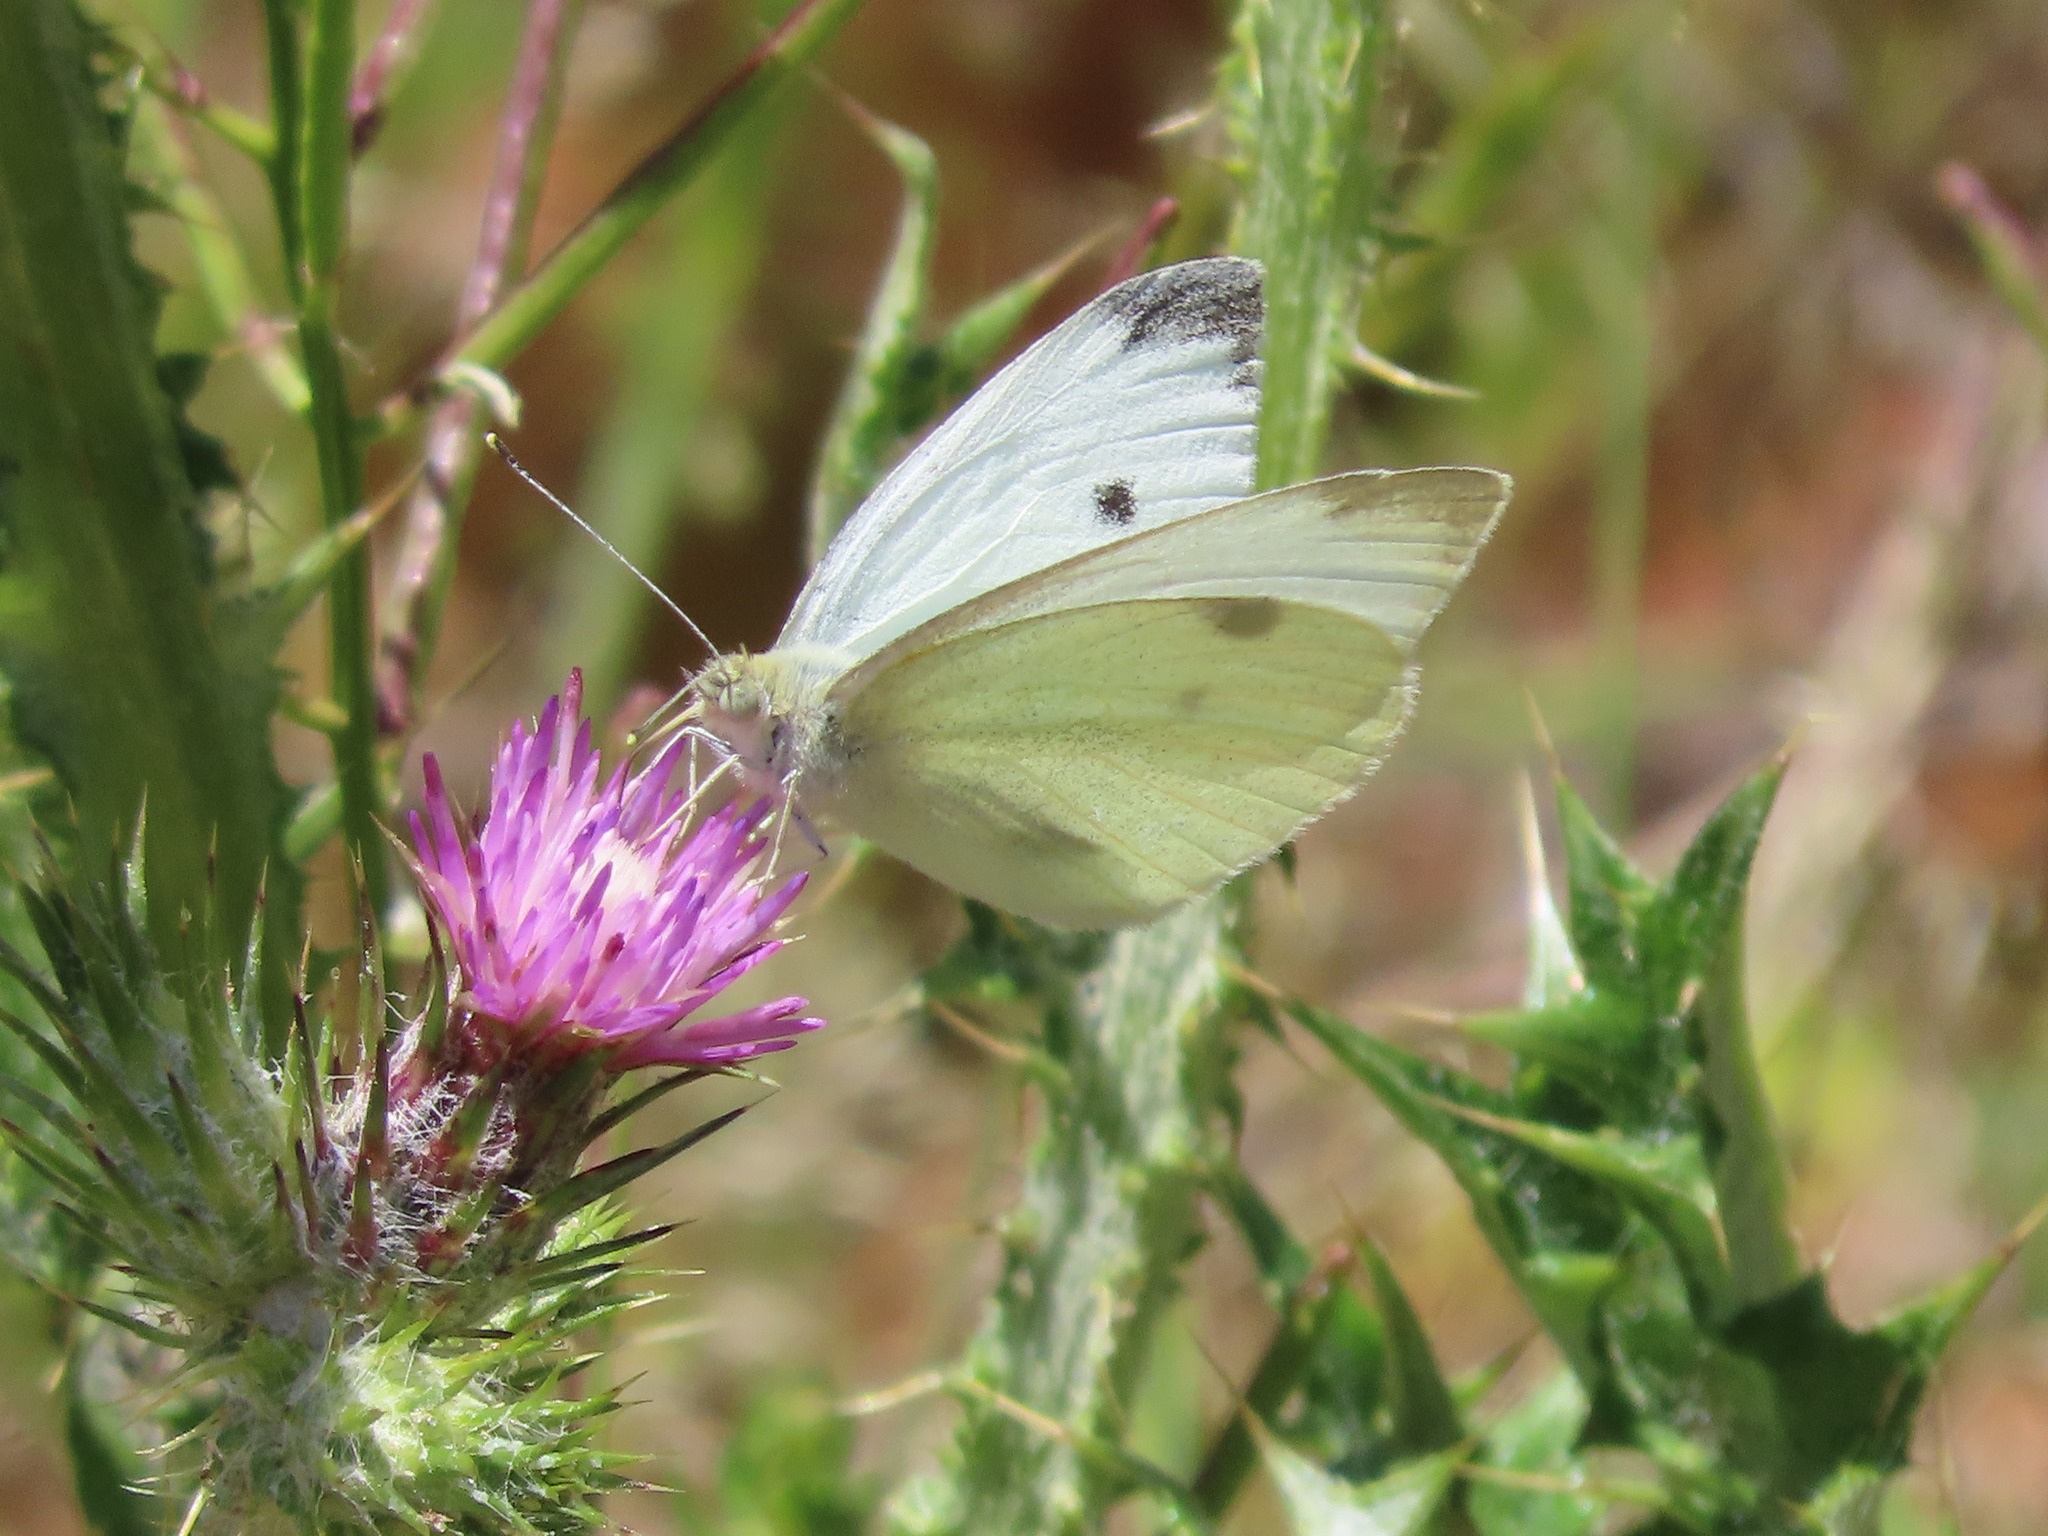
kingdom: Animalia
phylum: Arthropoda
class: Insecta
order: Lepidoptera
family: Pieridae
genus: Pieris
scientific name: Pieris rapae
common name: Small white
